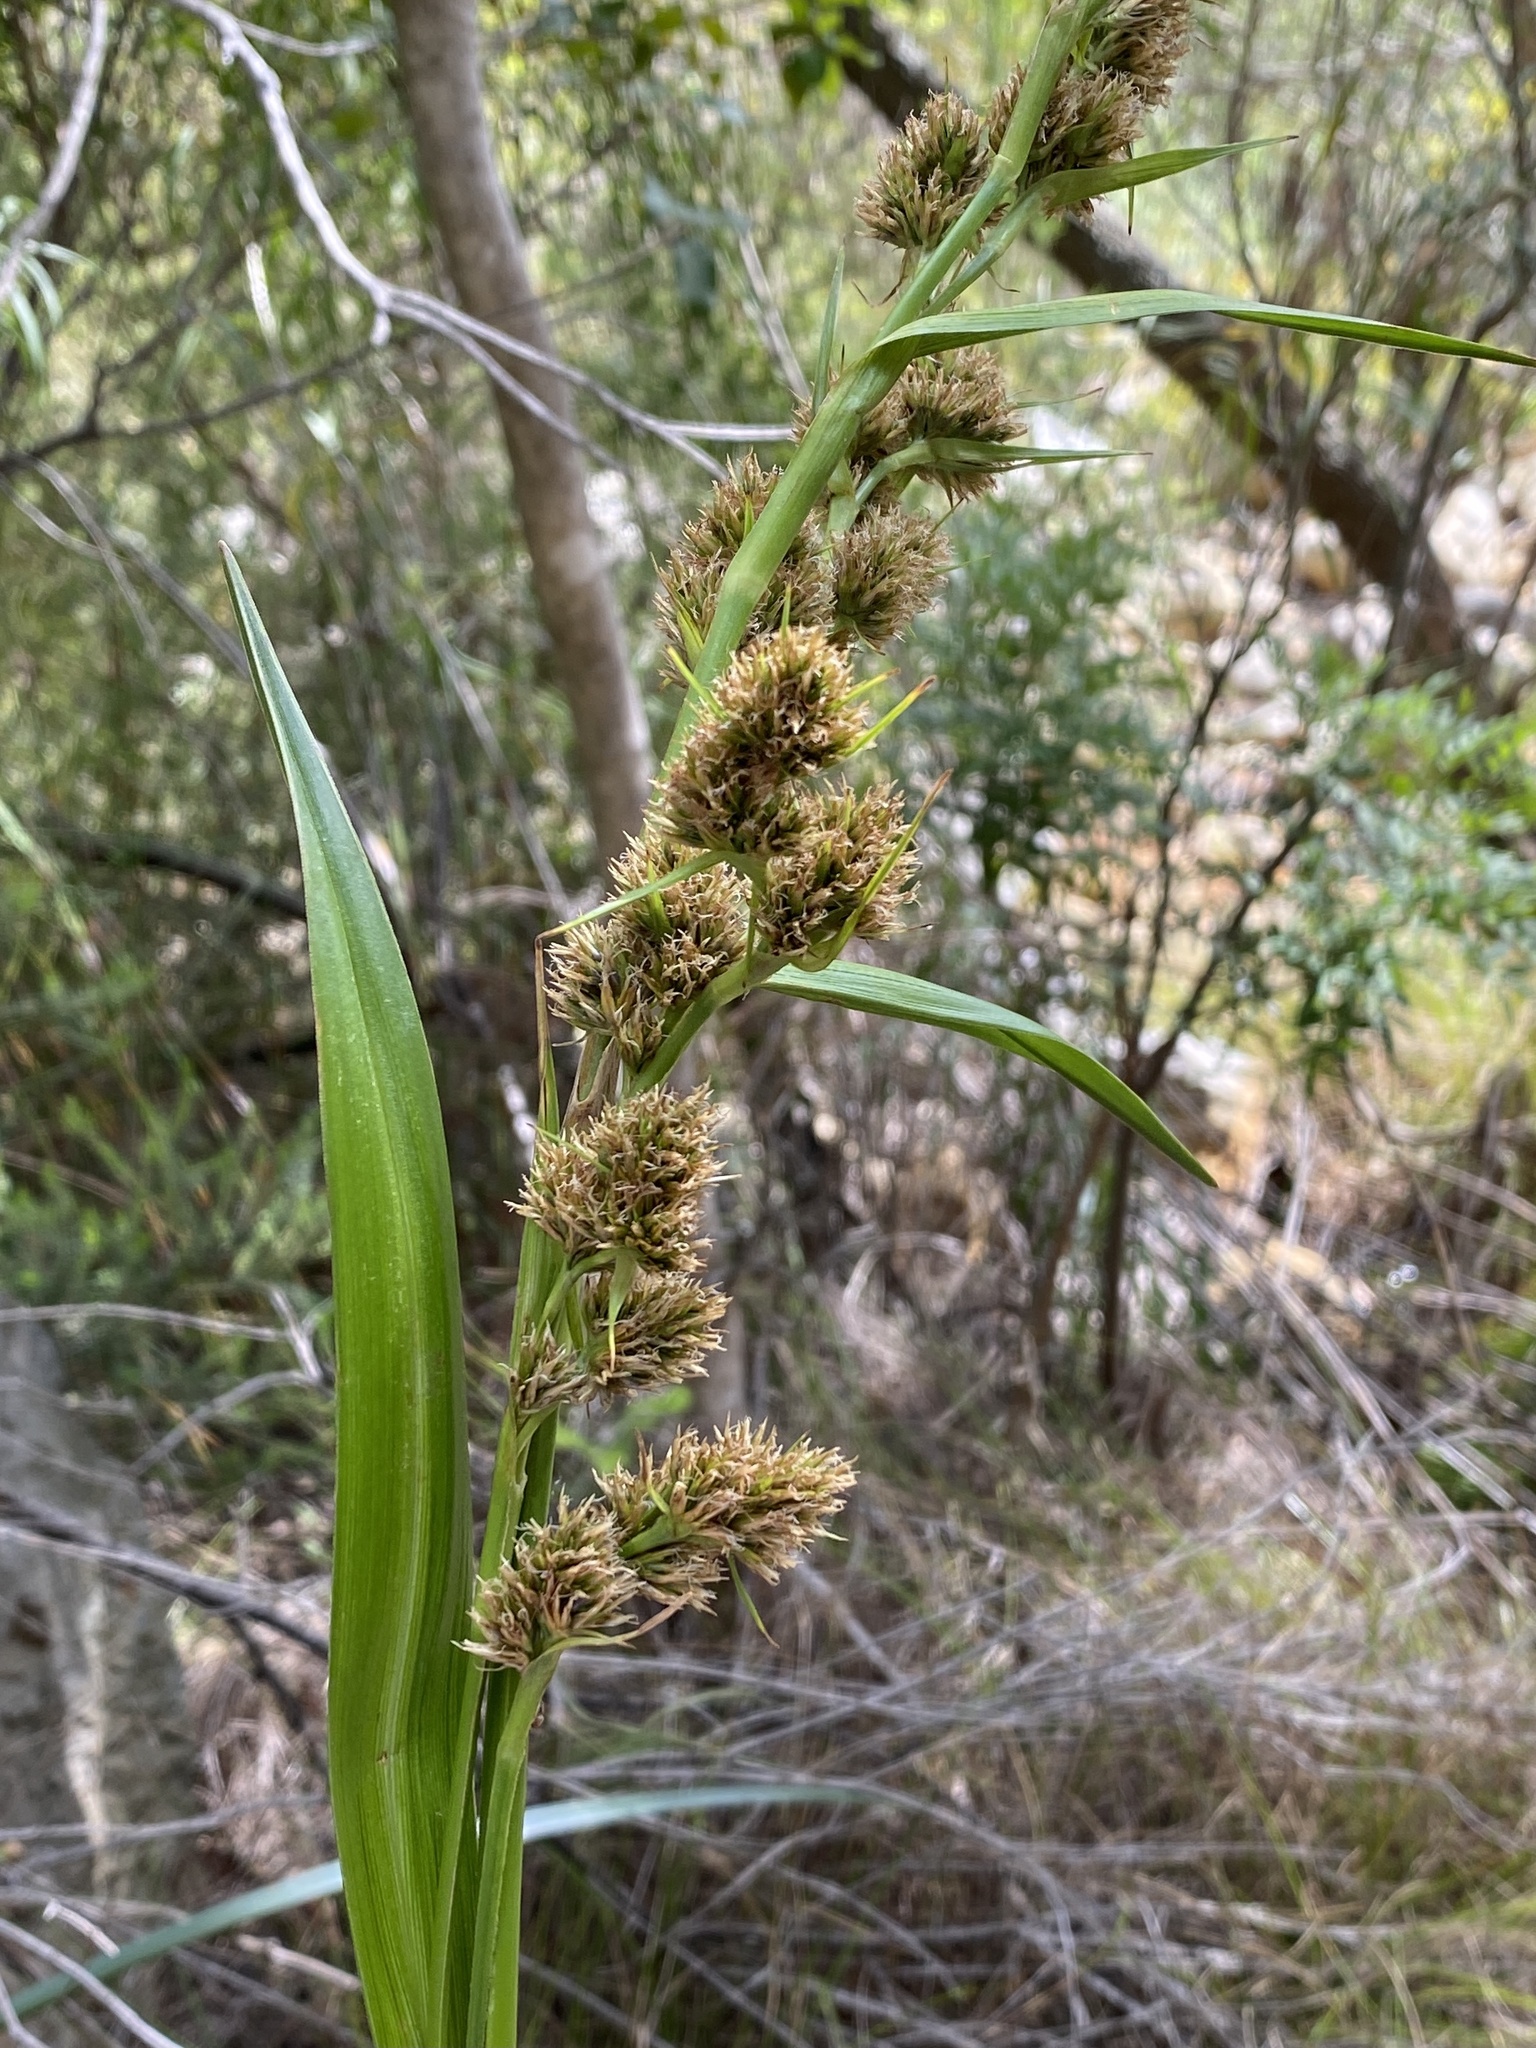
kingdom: Plantae
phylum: Tracheophyta
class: Liliopsida
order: Poales
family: Cyperaceae
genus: Carpha
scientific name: Carpha glomerata
